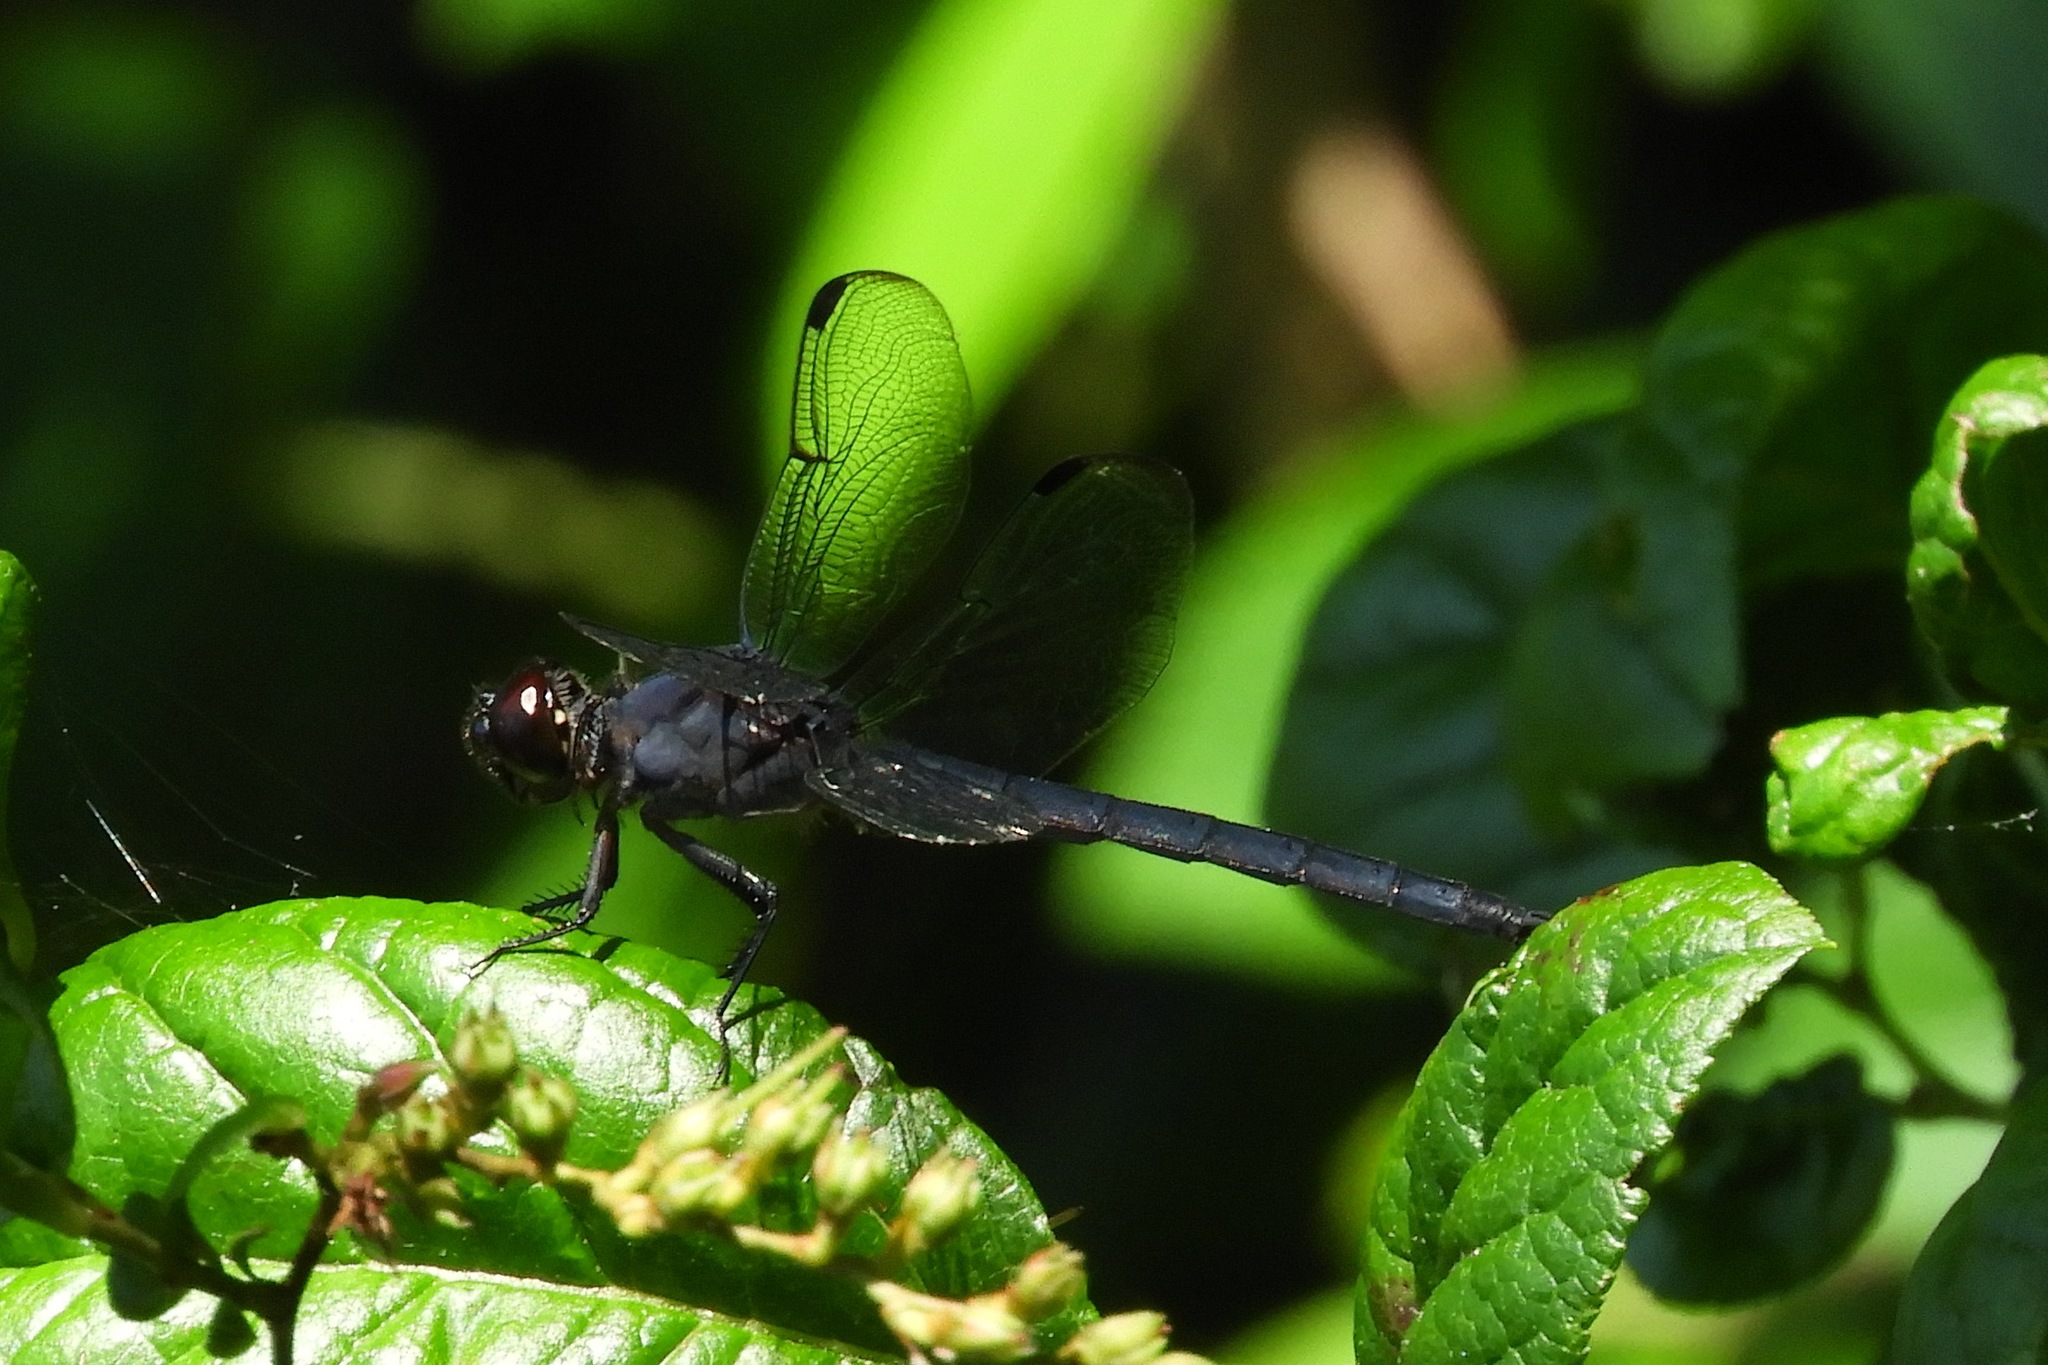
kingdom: Animalia
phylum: Arthropoda
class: Insecta
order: Odonata
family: Libellulidae
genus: Libellula
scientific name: Libellula incesta
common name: Slaty skimmer
